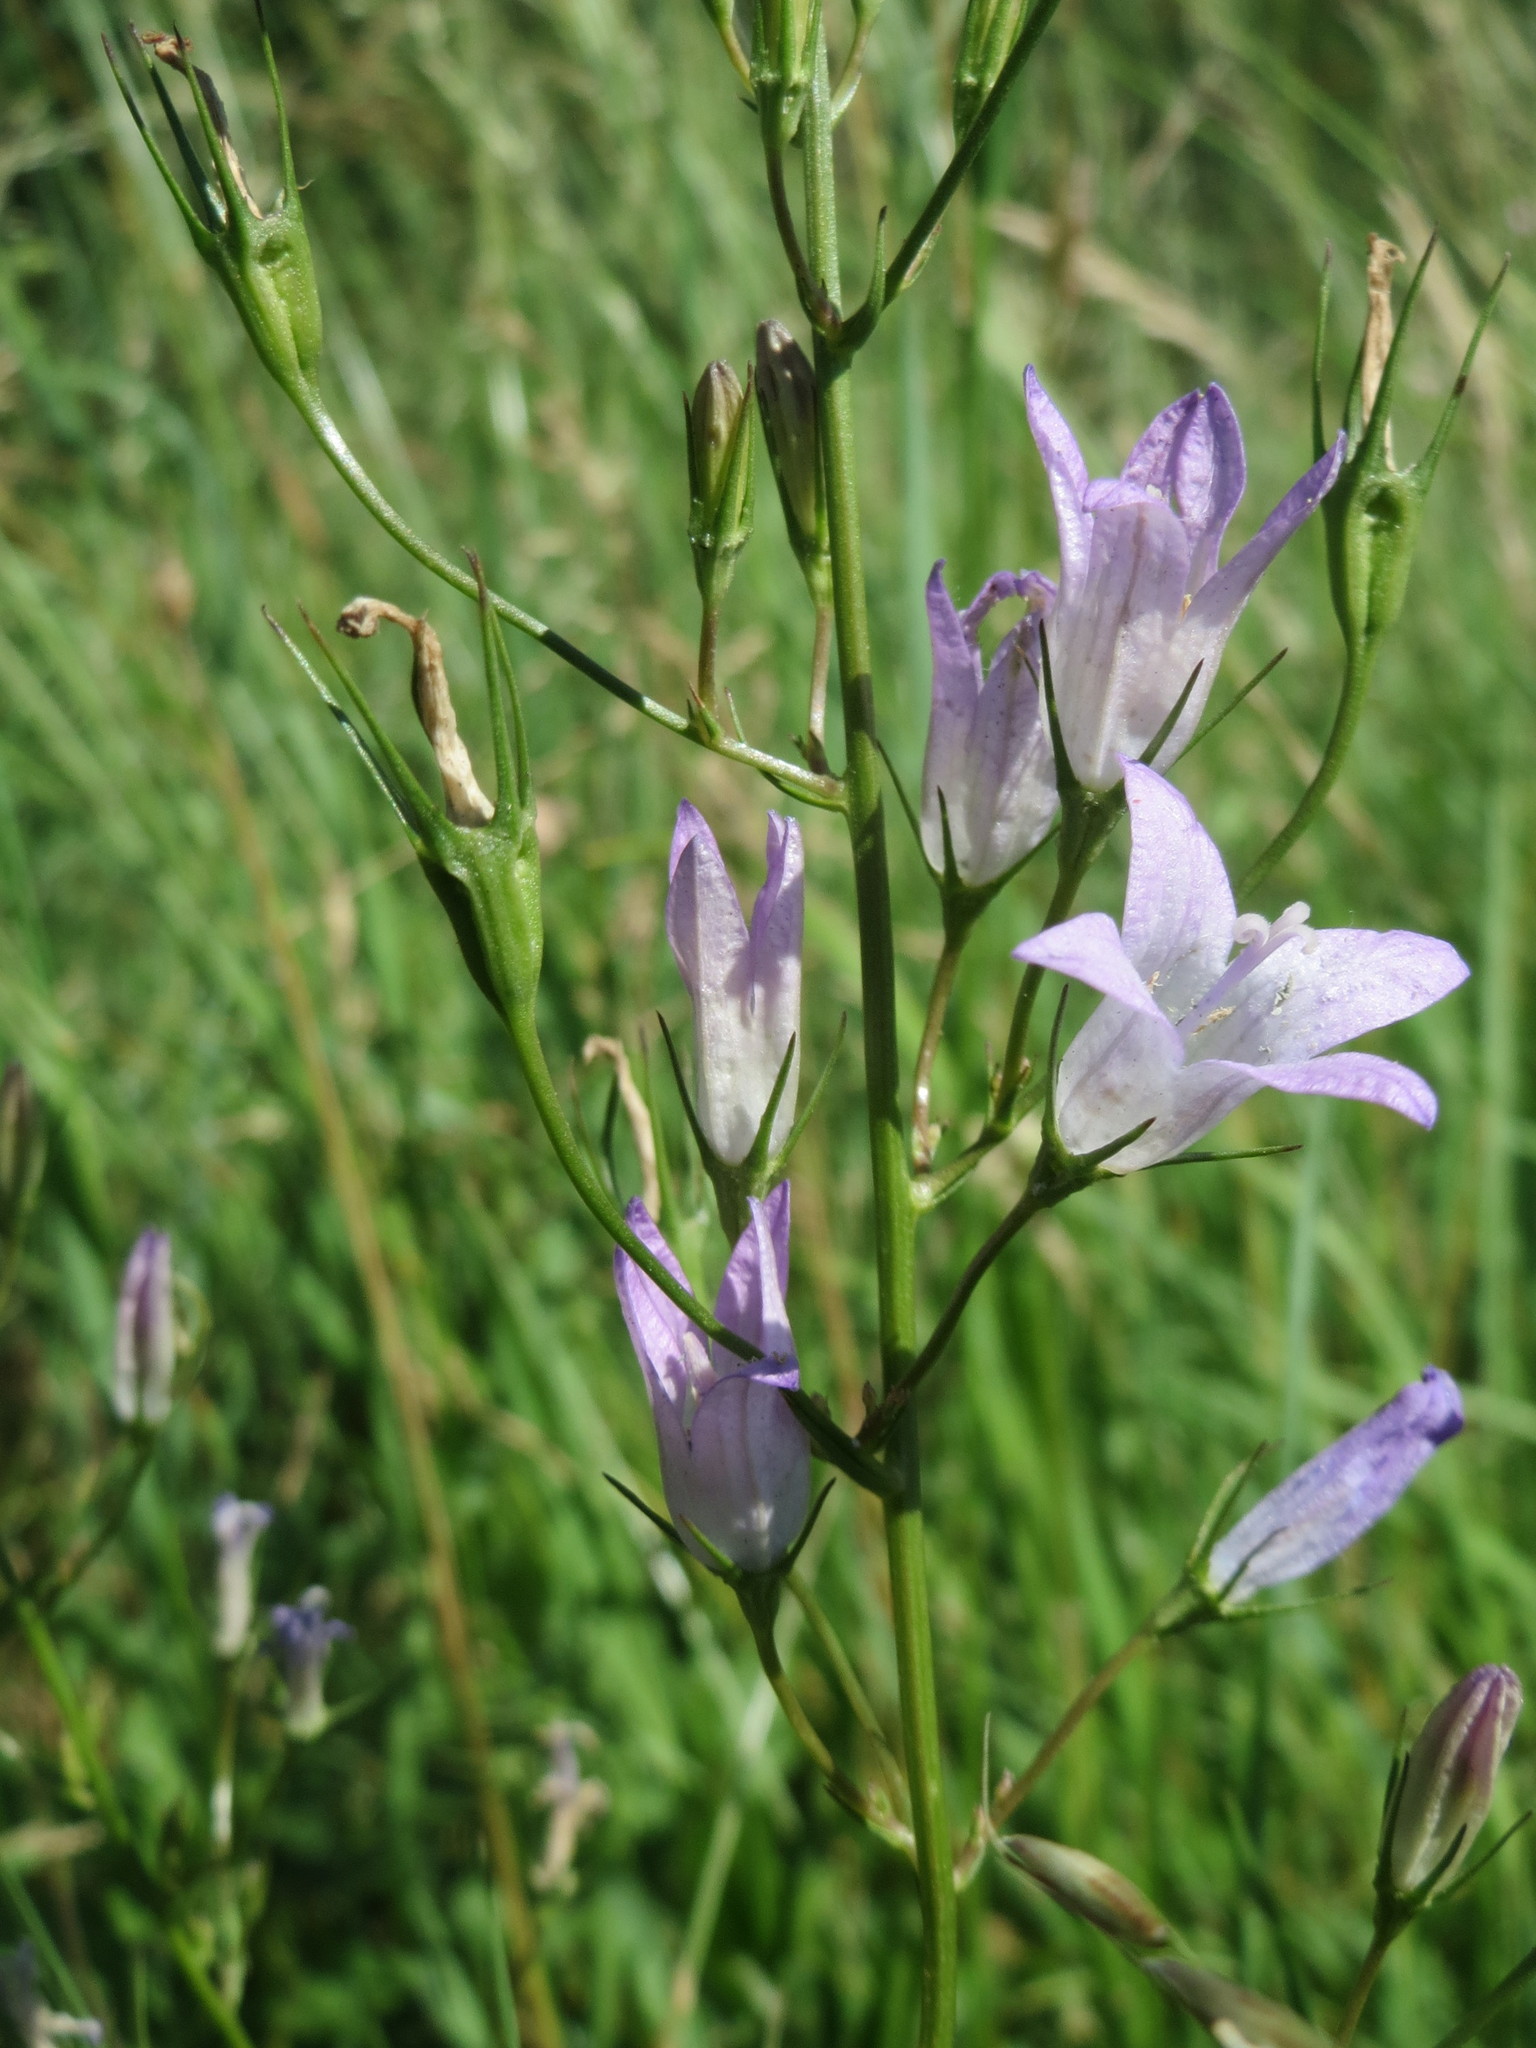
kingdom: Plantae
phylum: Tracheophyta
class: Magnoliopsida
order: Asterales
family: Campanulaceae
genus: Campanula
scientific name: Campanula rapunculus
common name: Rampion bellflower
